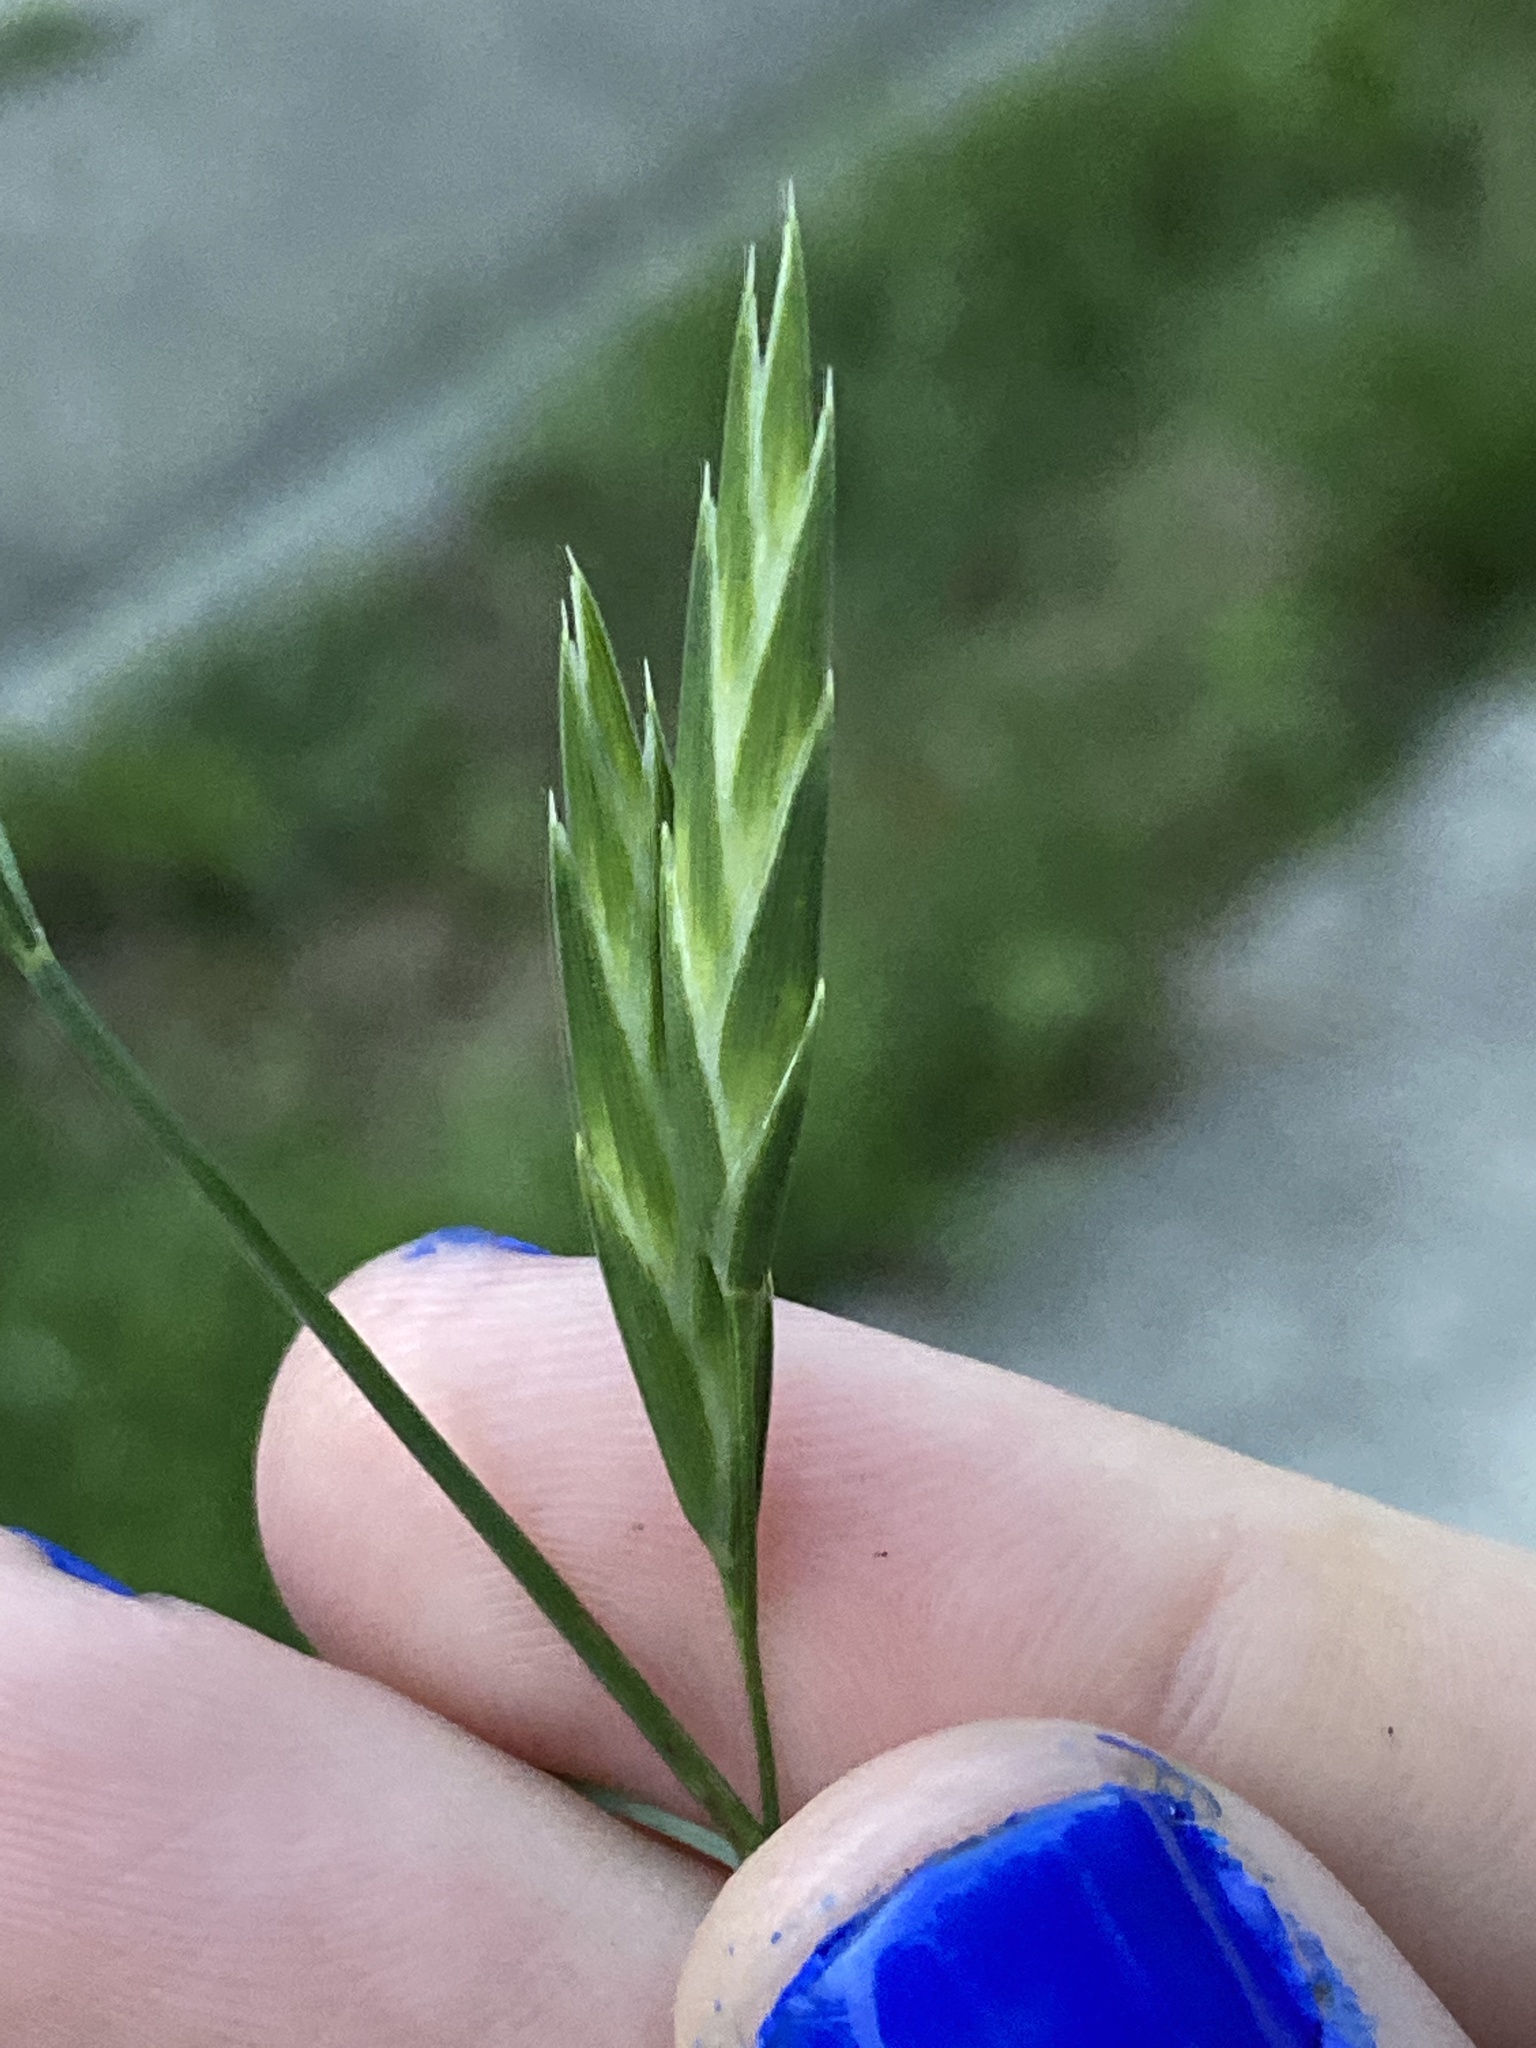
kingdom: Plantae
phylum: Tracheophyta
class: Liliopsida
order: Poales
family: Poaceae
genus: Bromus
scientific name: Bromus catharticus
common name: Rescuegrass
